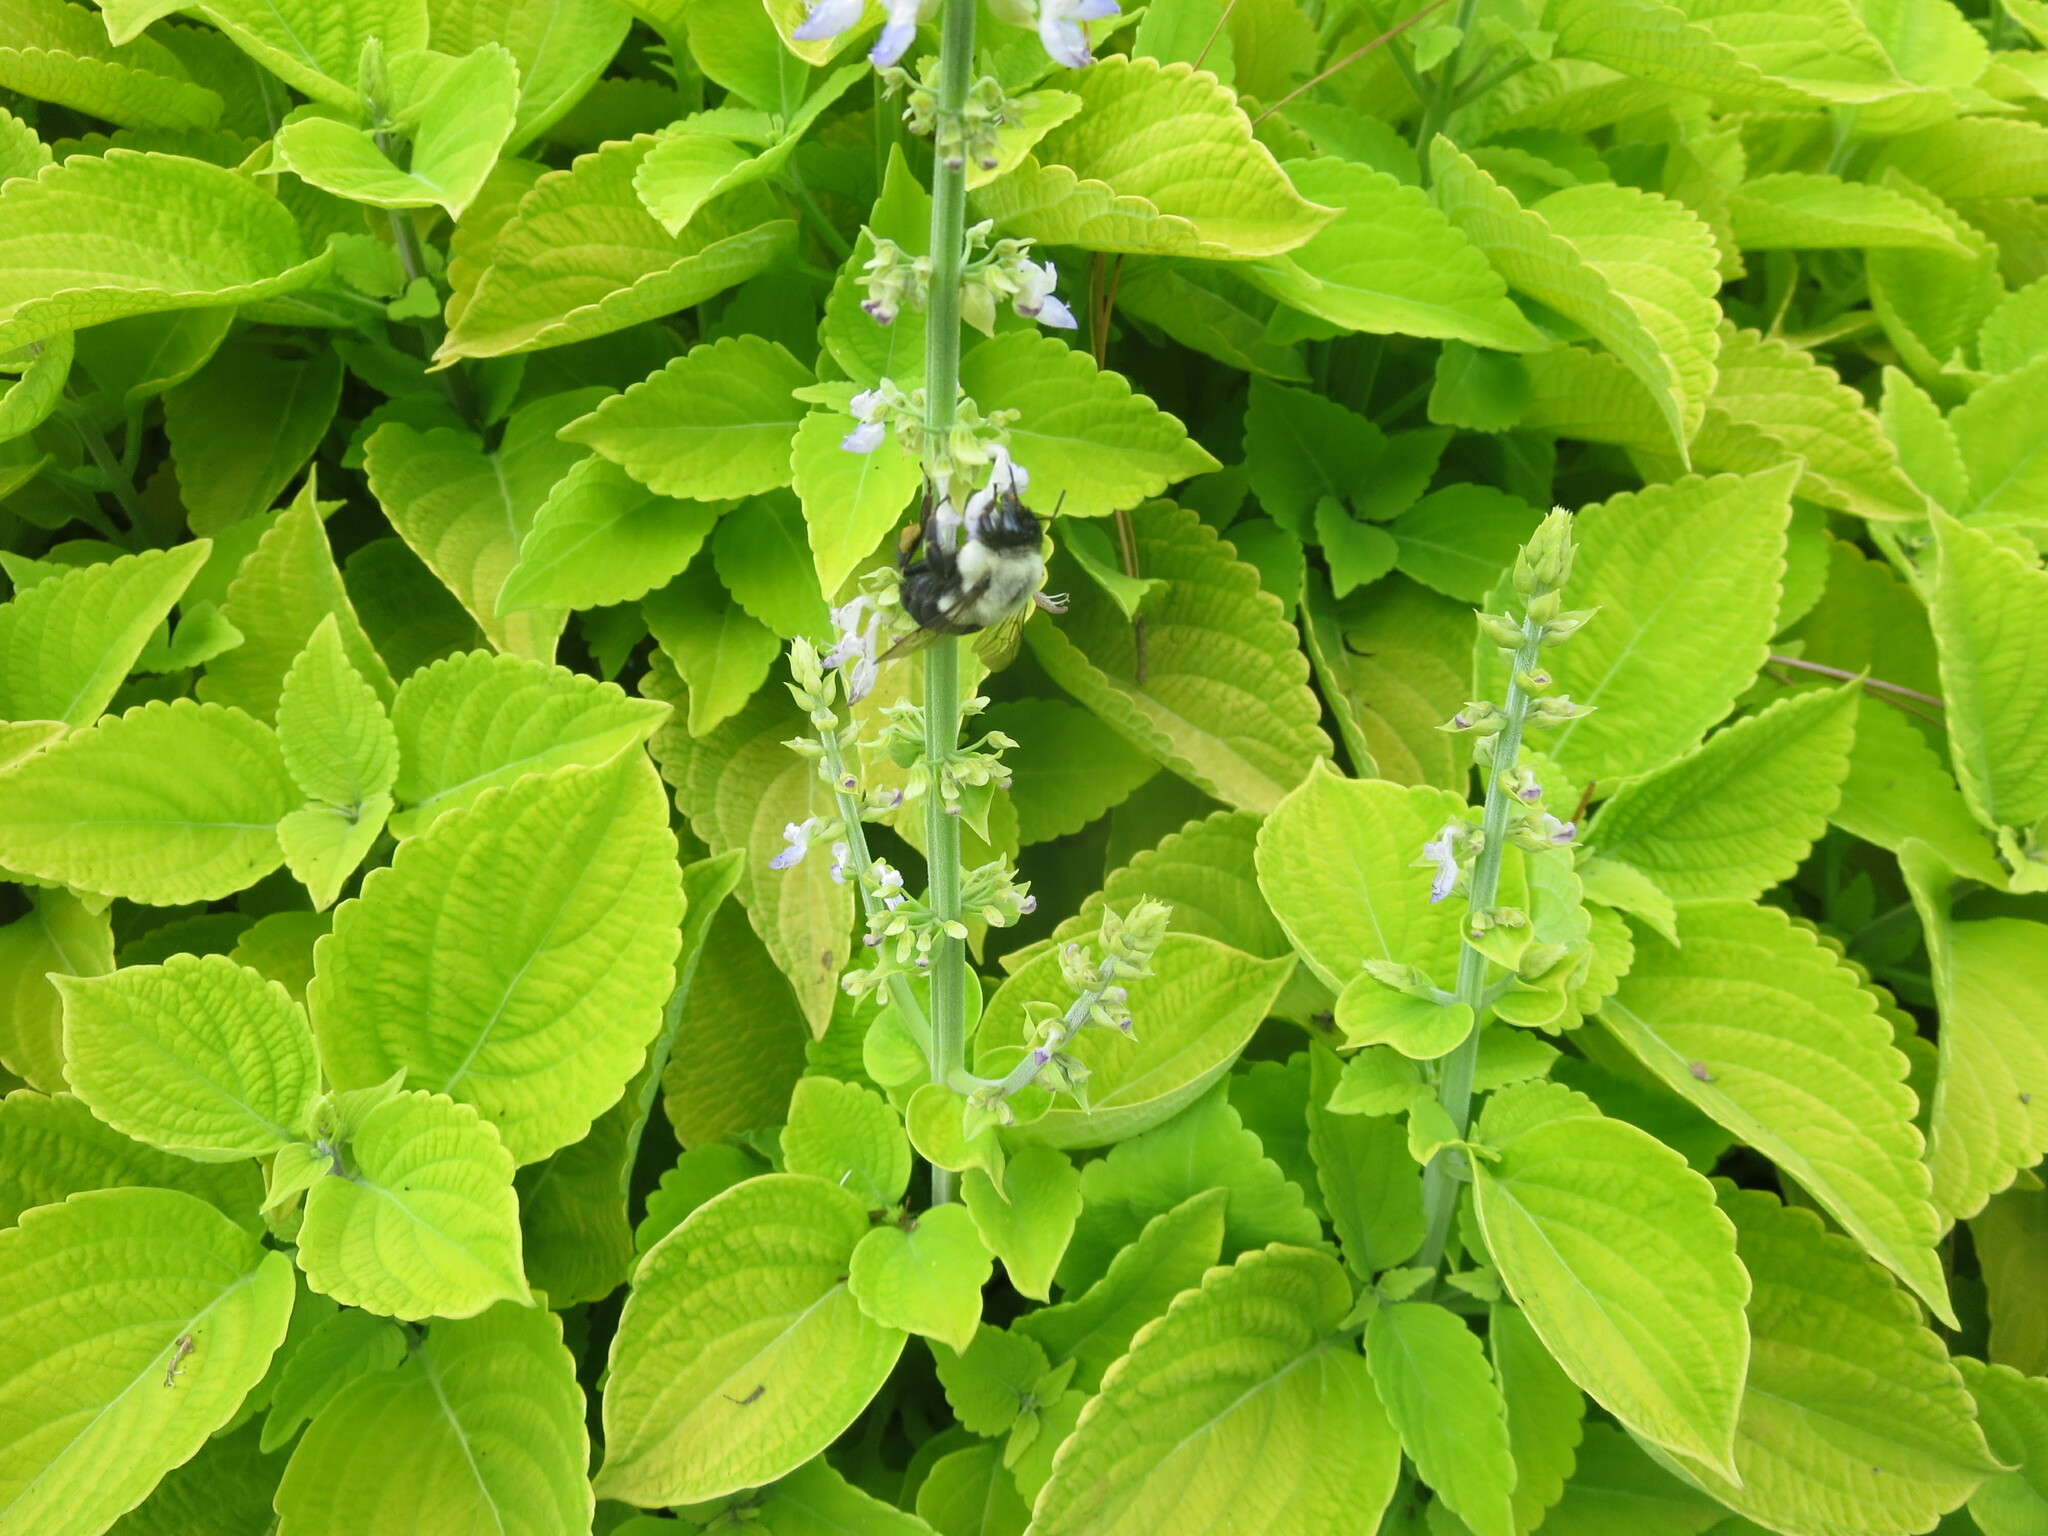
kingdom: Animalia
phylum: Arthropoda
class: Insecta
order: Hymenoptera
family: Apidae
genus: Bombus
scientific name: Bombus impatiens
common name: Common eastern bumble bee
